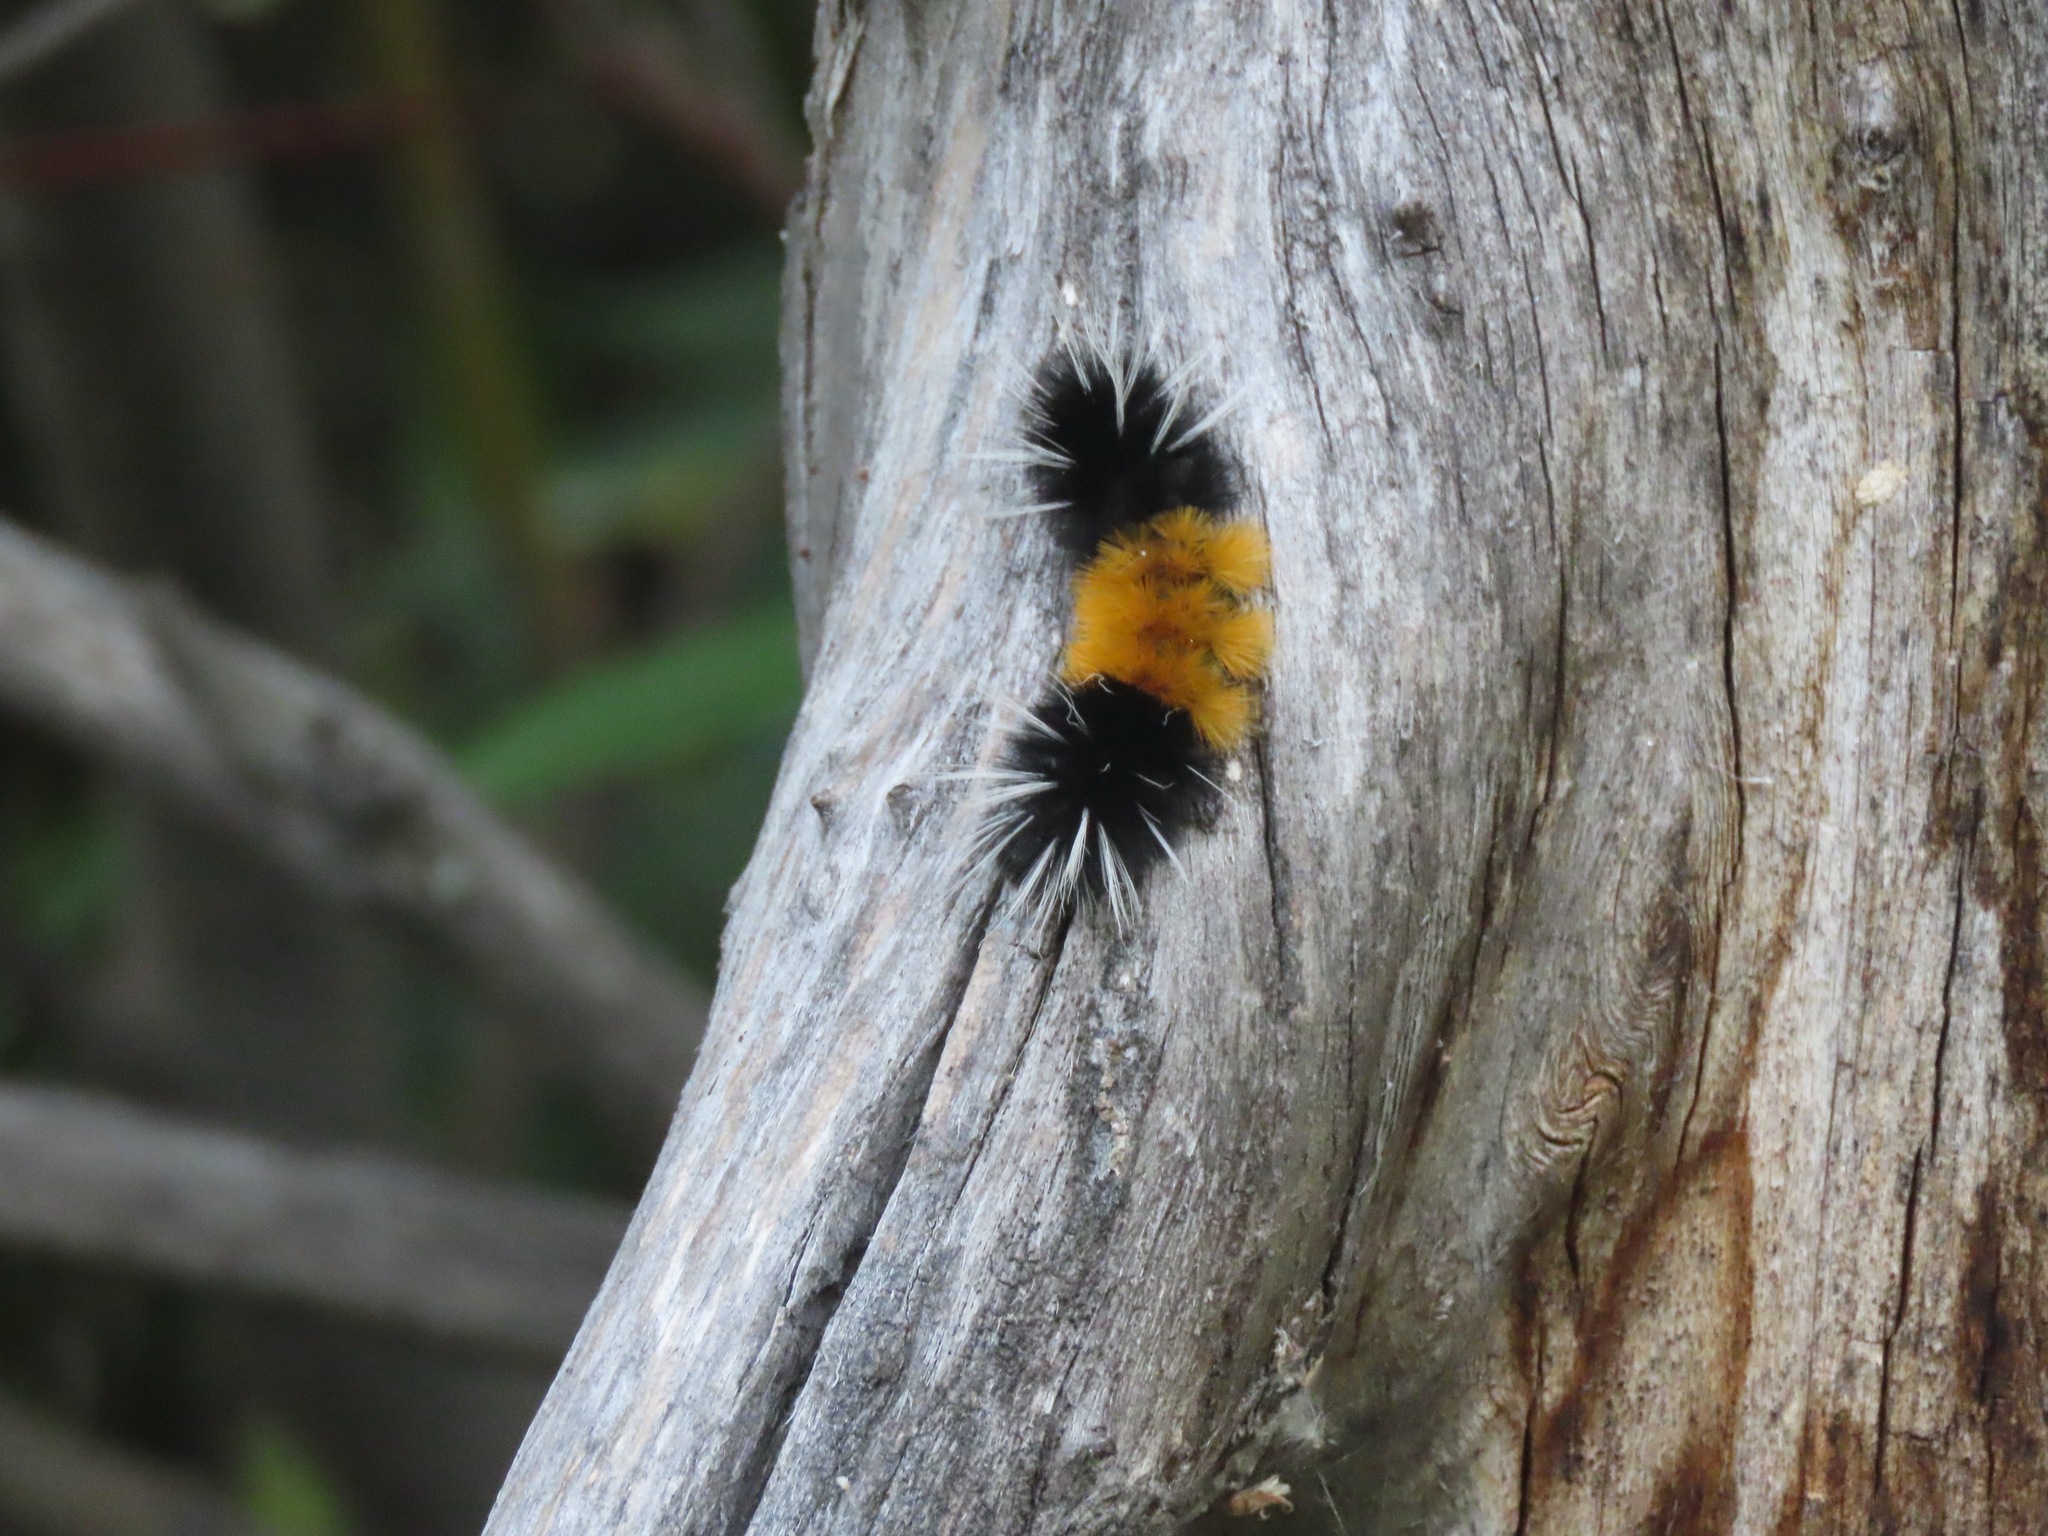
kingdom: Animalia
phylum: Arthropoda
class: Insecta
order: Lepidoptera
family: Erebidae
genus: Lophocampa
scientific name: Lophocampa maculata
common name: Spotted tussock moth
